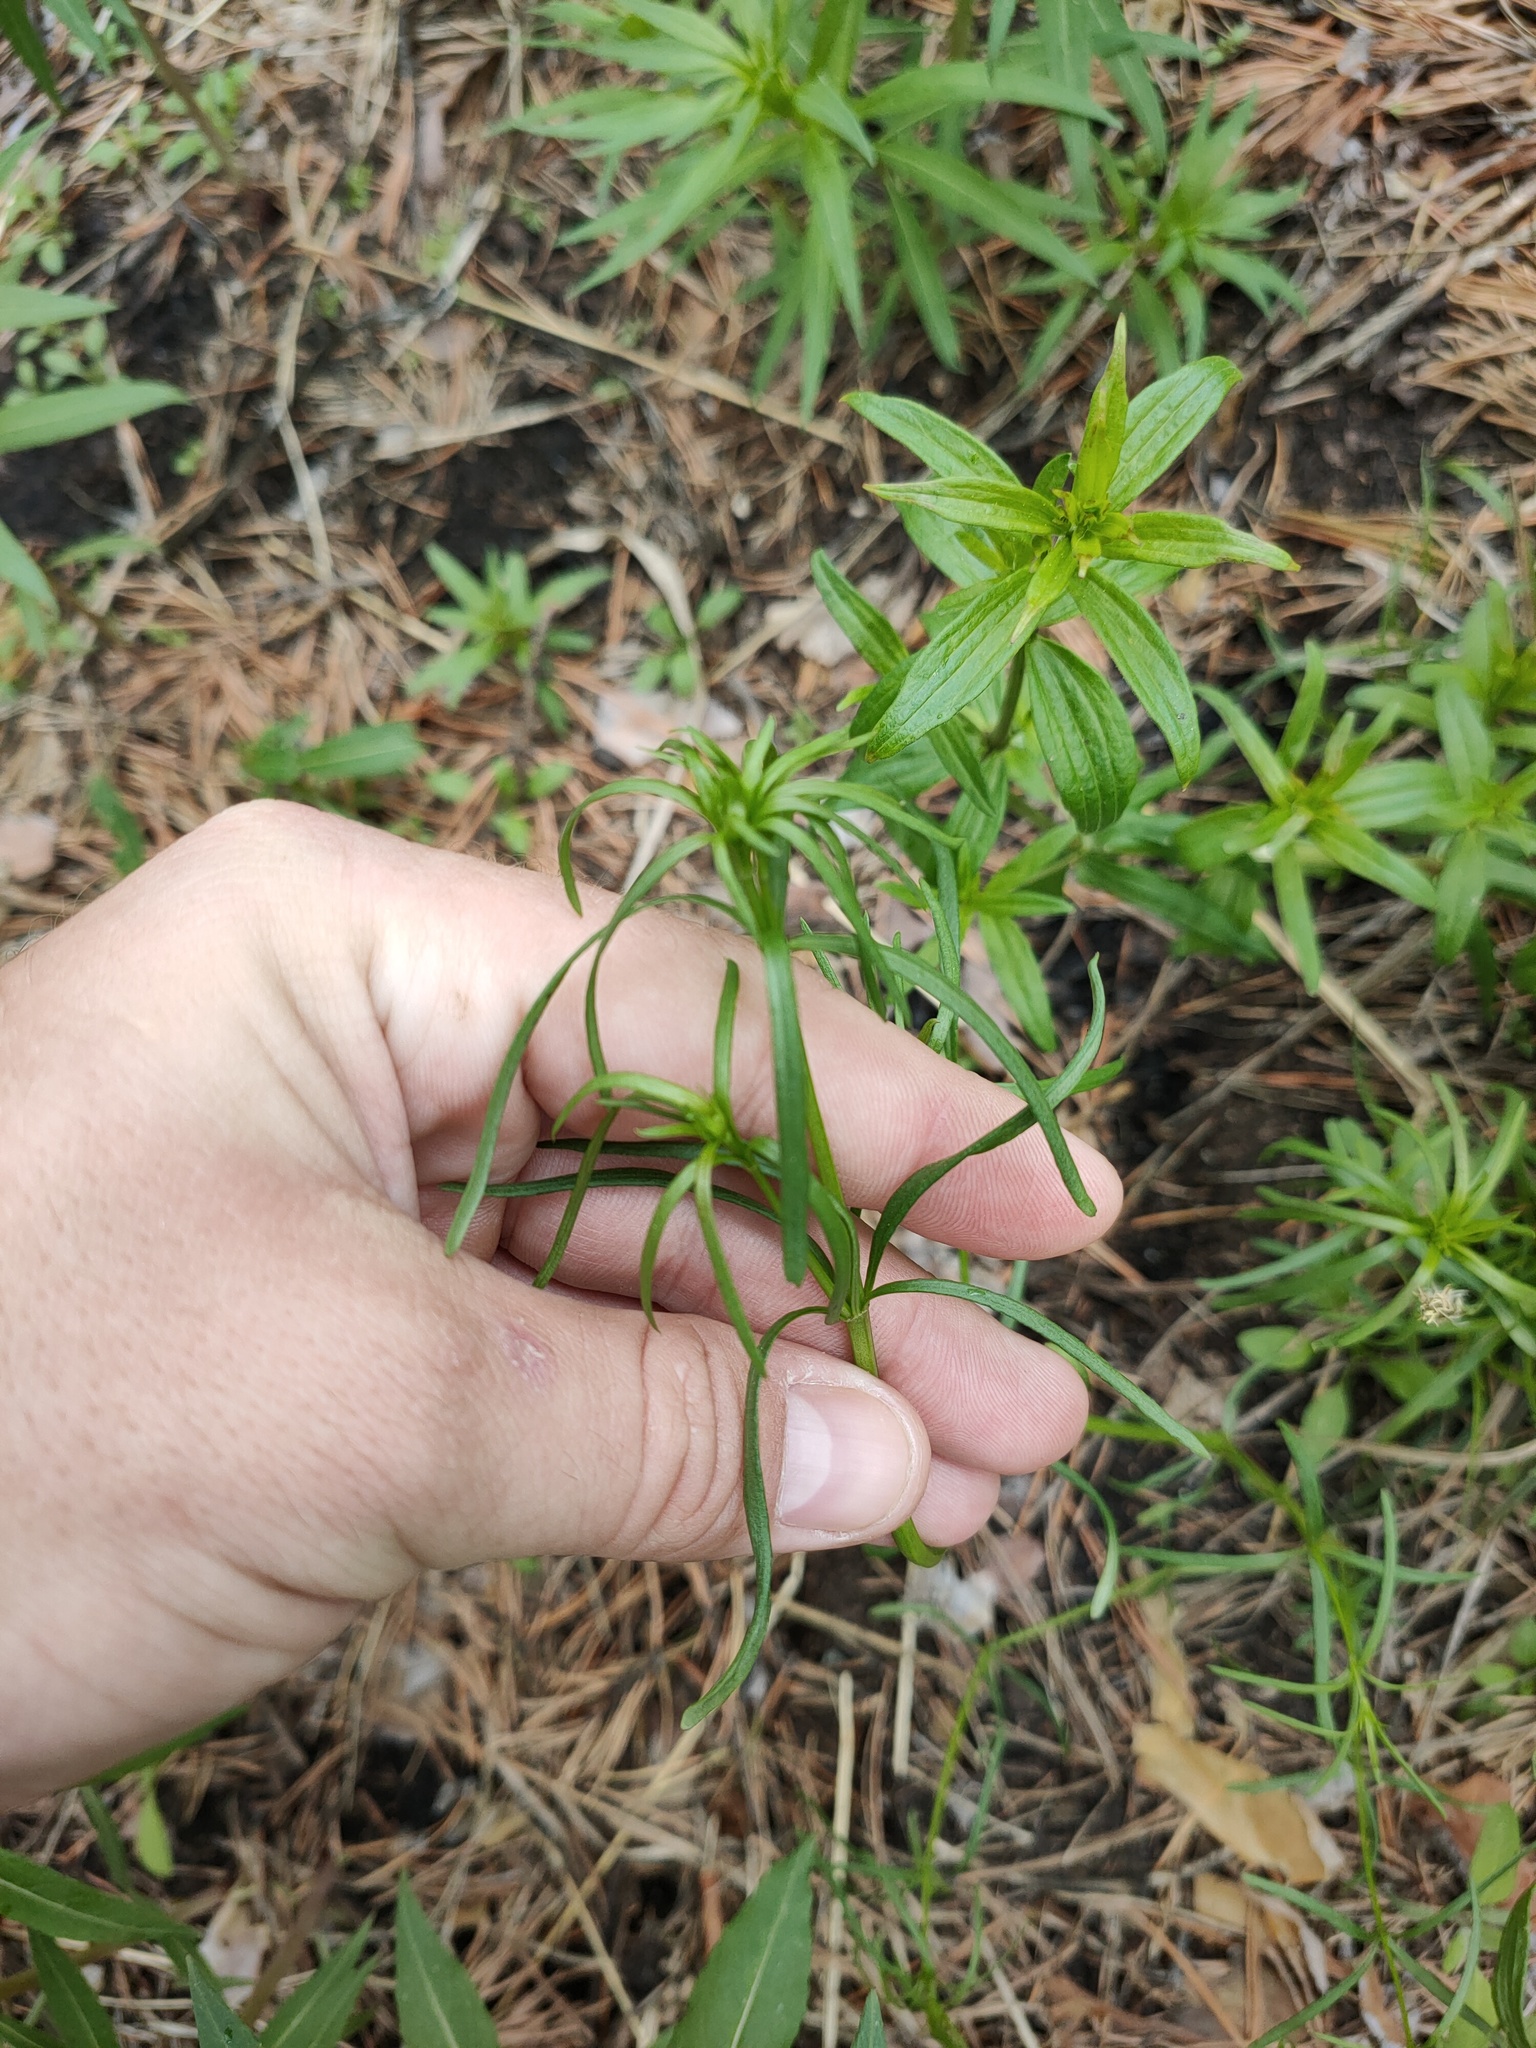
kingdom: Plantae
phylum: Tracheophyta
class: Magnoliopsida
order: Ranunculales
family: Ranunculaceae
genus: Ranunculus
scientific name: Ranunculus acris
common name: Meadow buttercup
